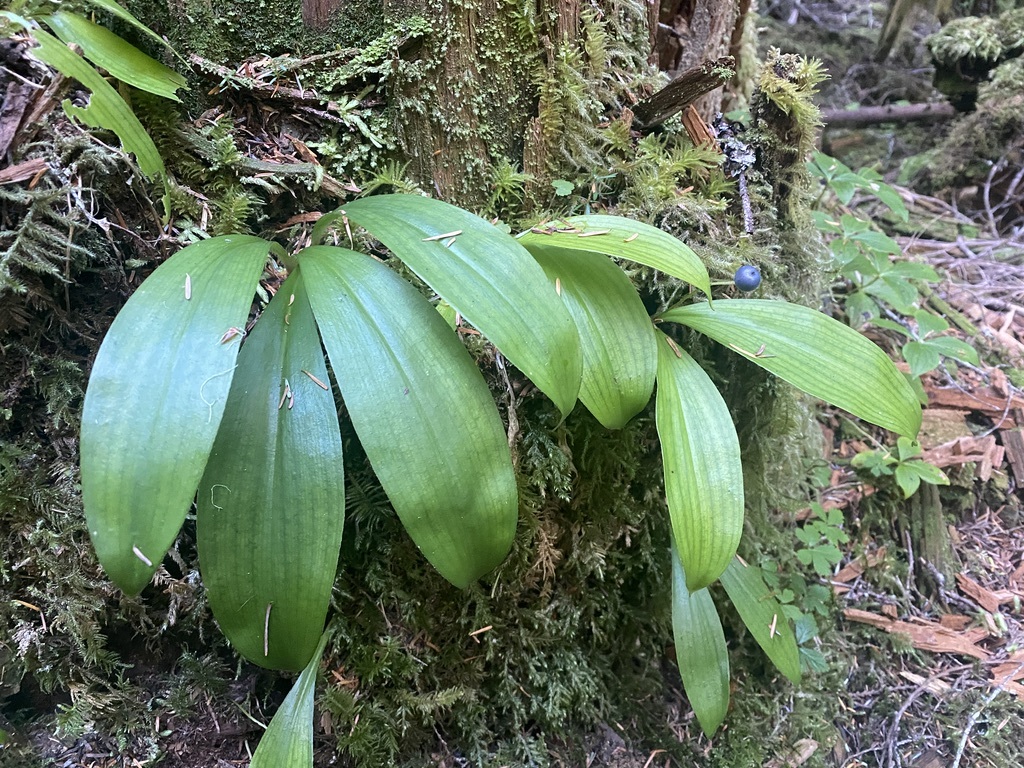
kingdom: Plantae
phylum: Tracheophyta
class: Liliopsida
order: Liliales
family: Liliaceae
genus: Clintonia
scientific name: Clintonia uniflora
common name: Queen's cup
